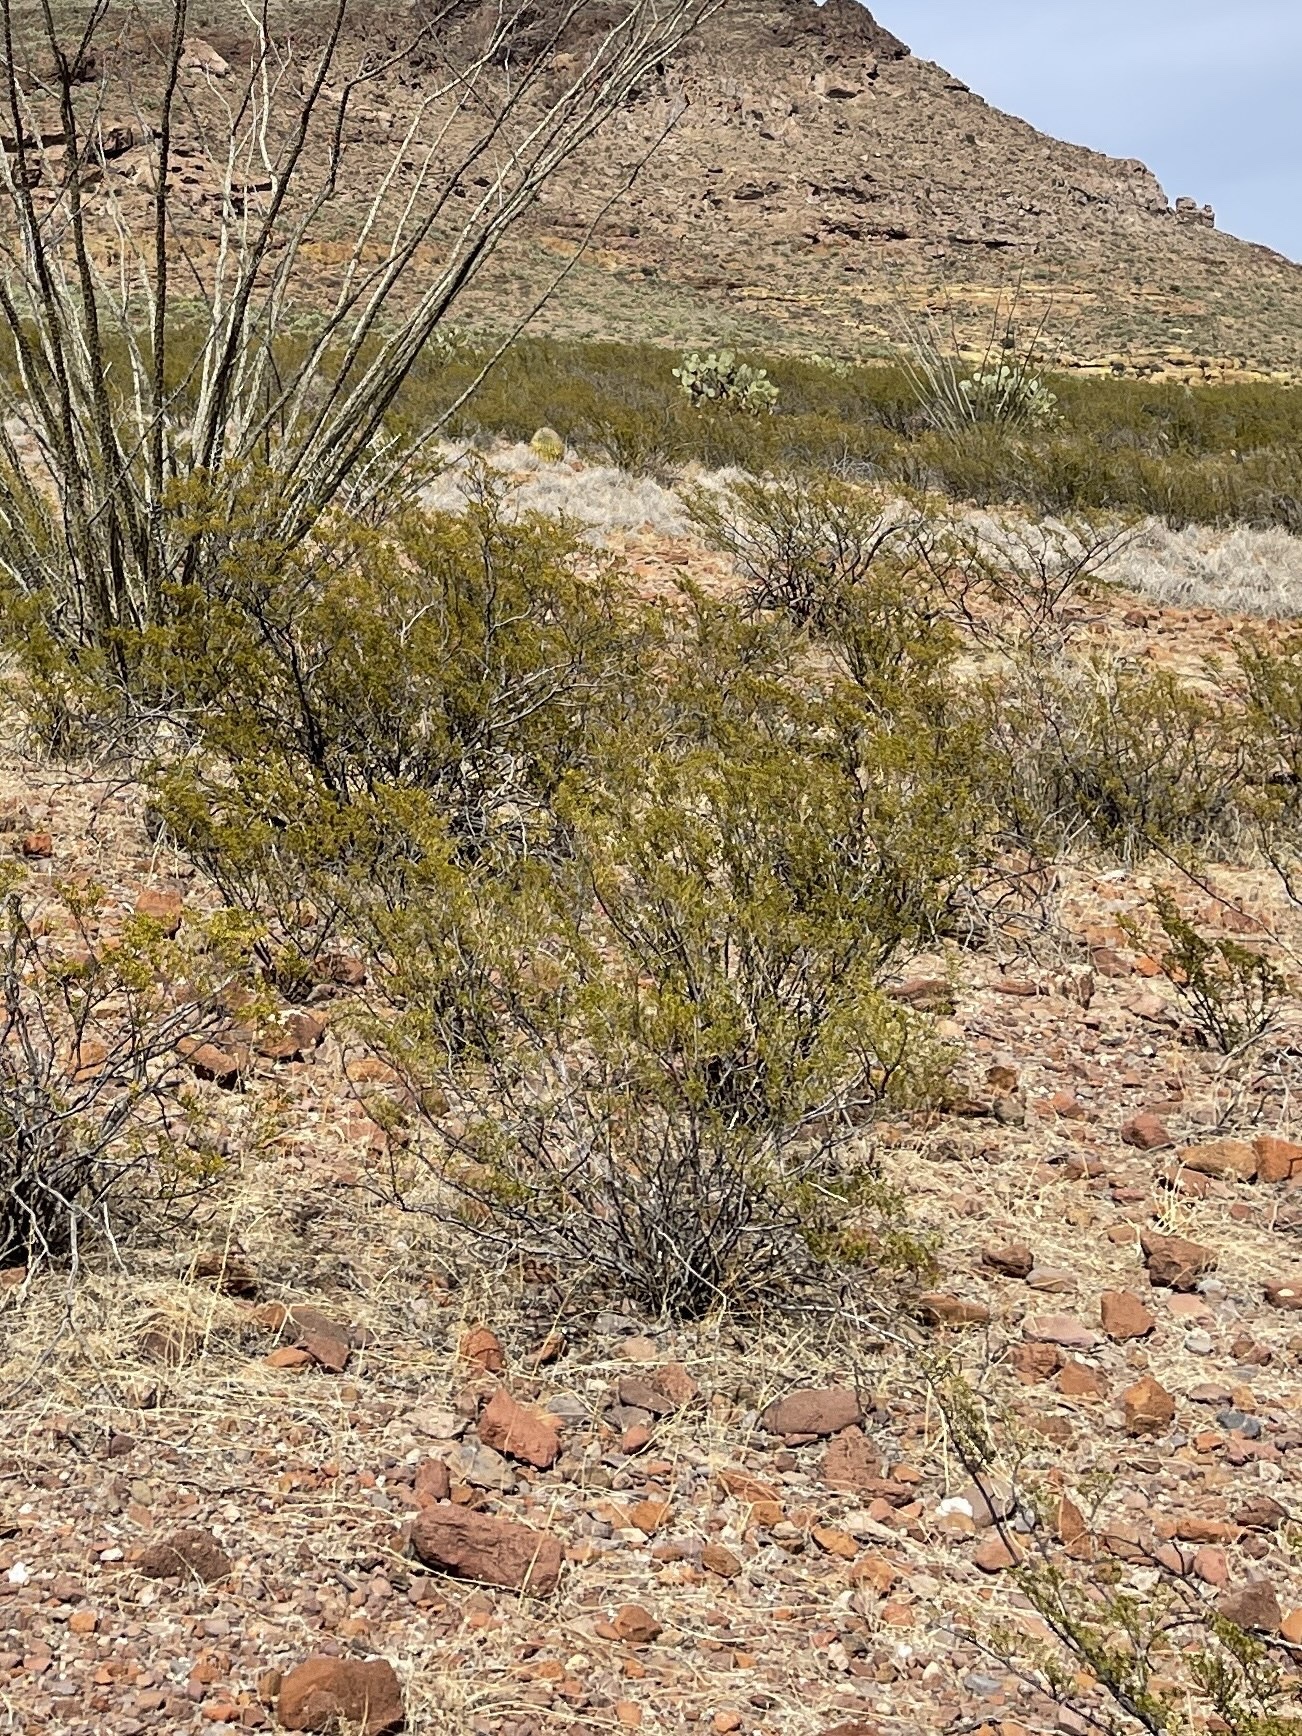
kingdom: Plantae
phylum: Tracheophyta
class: Magnoliopsida
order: Zygophyllales
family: Zygophyllaceae
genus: Larrea
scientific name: Larrea tridentata
